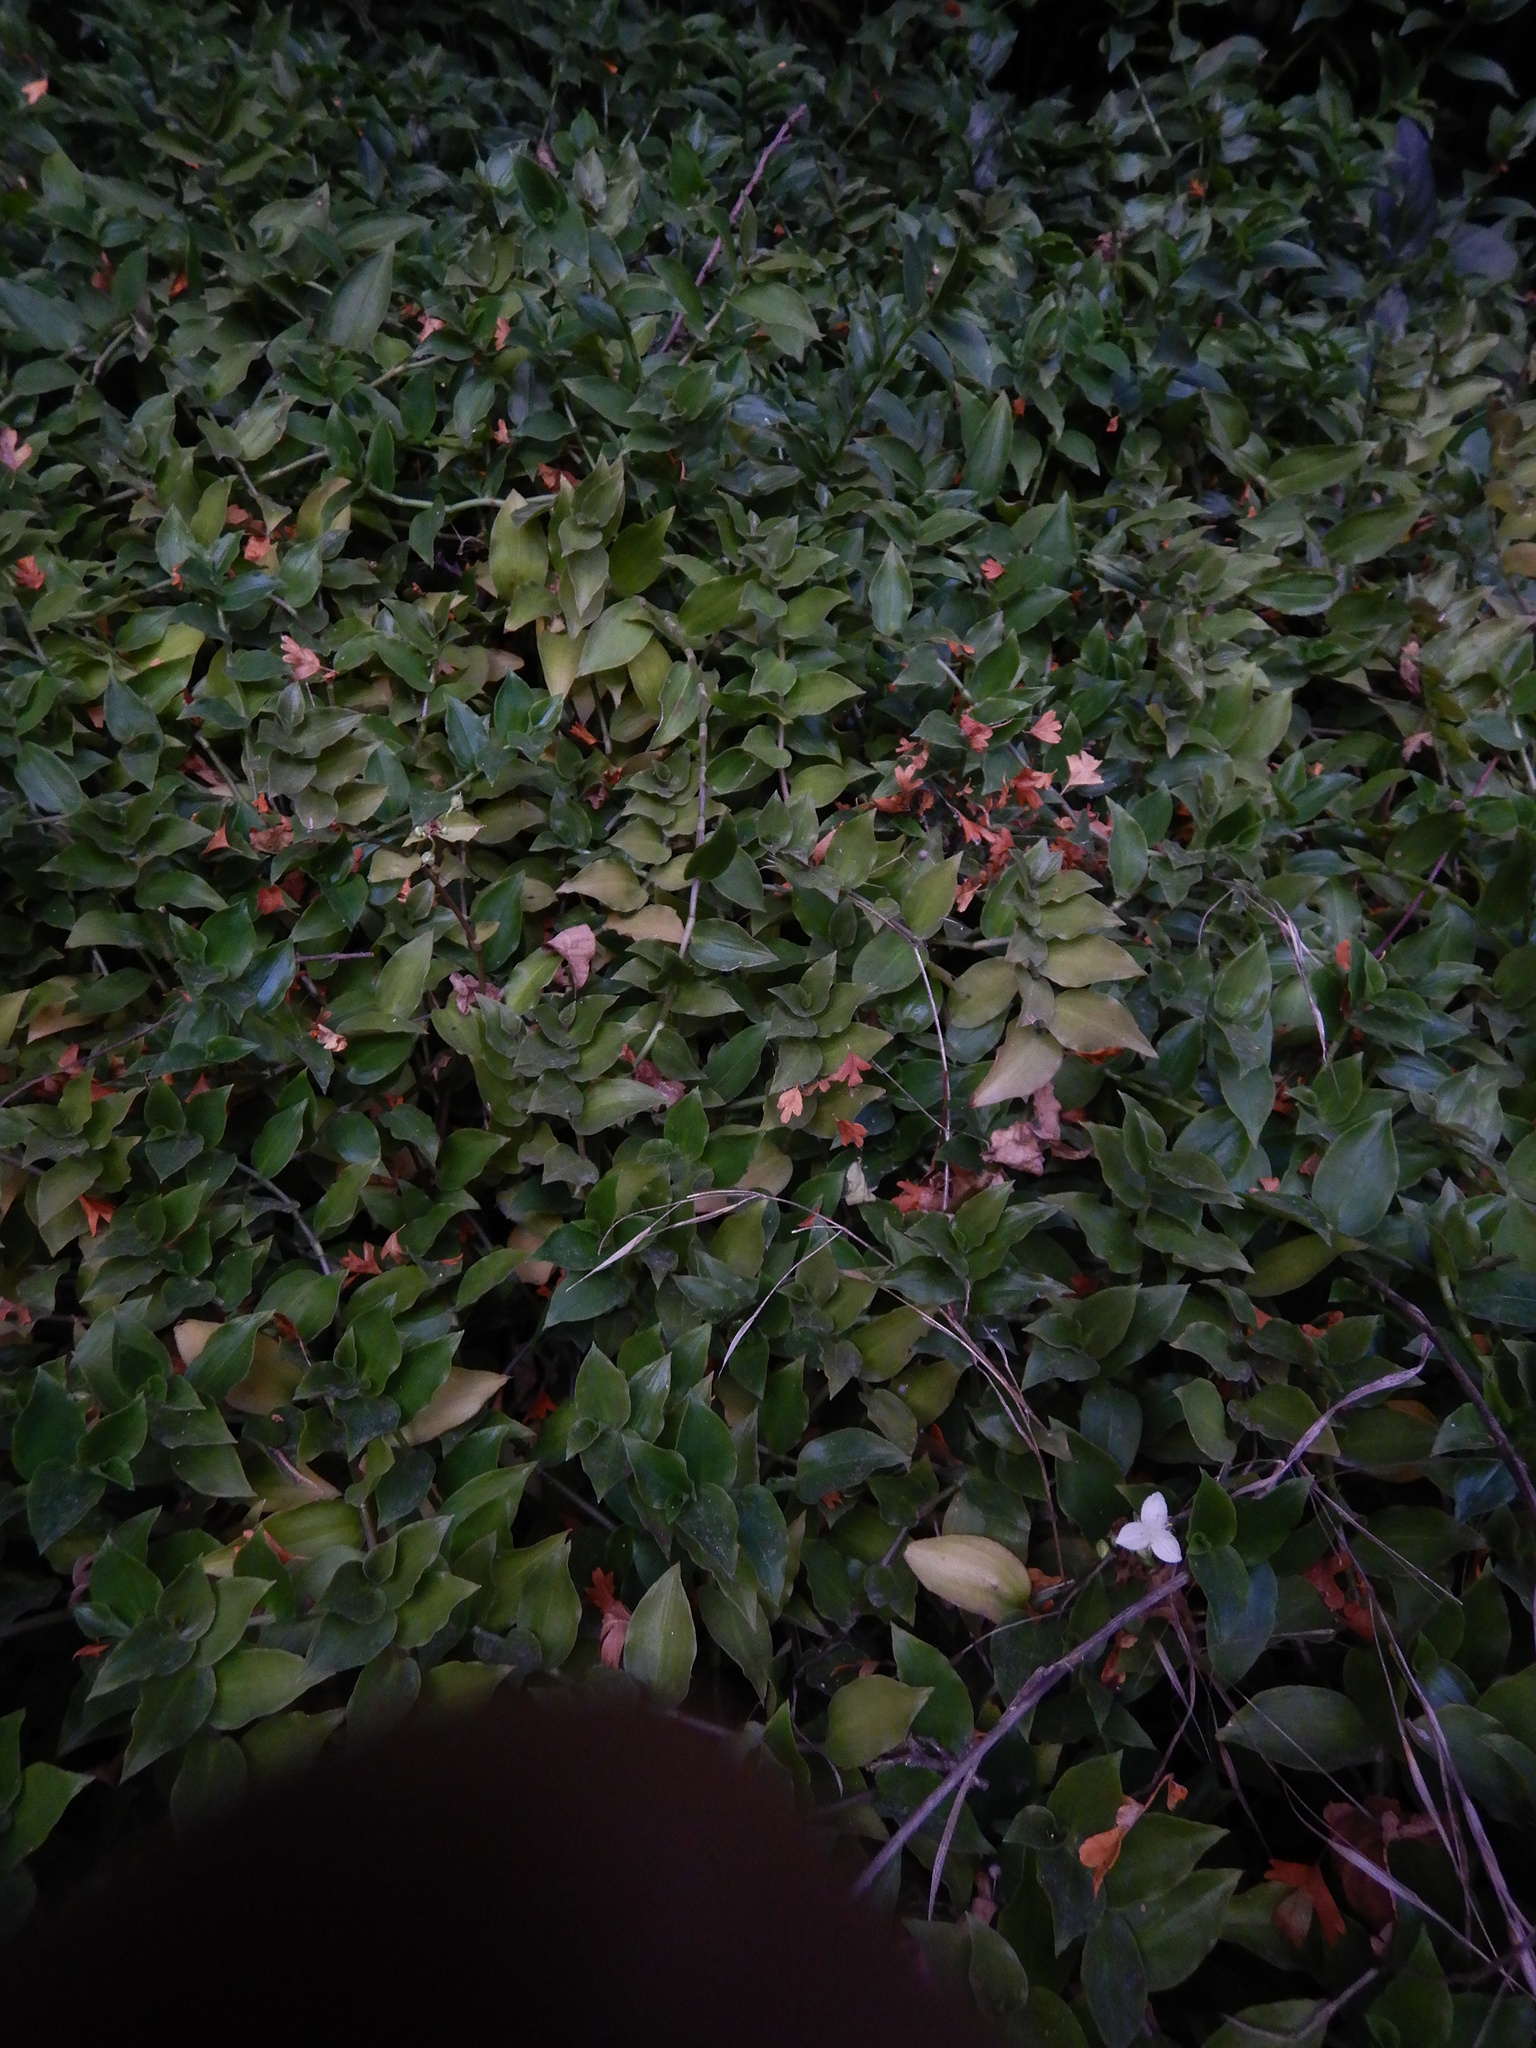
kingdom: Plantae
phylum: Tracheophyta
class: Liliopsida
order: Commelinales
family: Commelinaceae
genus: Tradescantia
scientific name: Tradescantia fluminensis
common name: Wandering-jew
